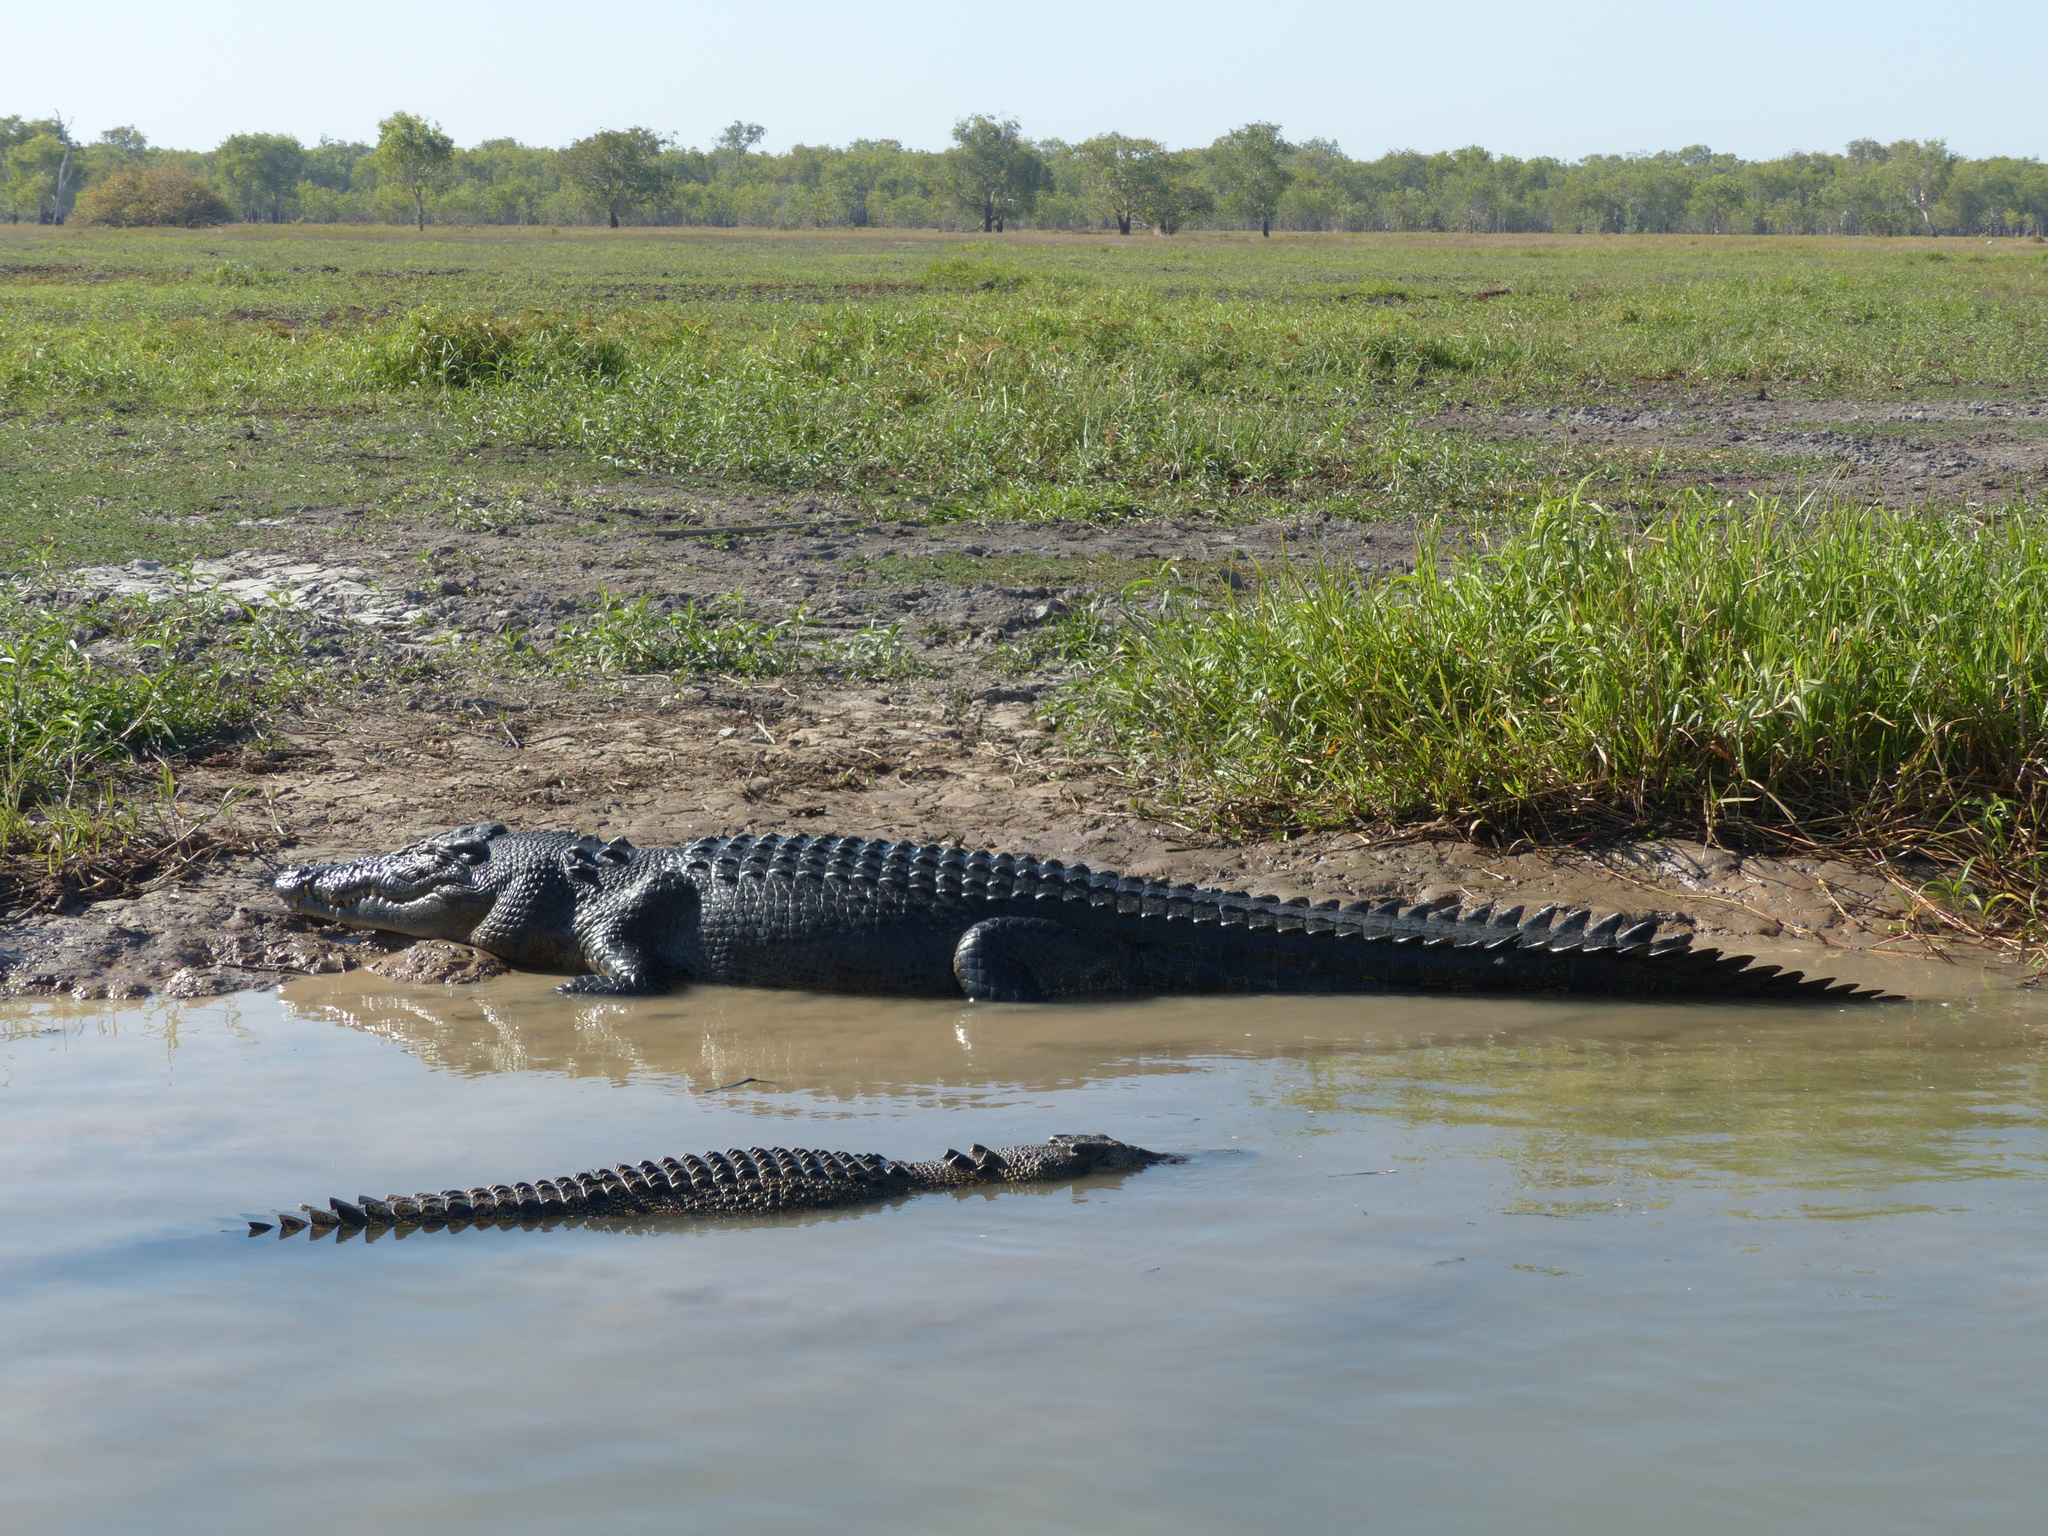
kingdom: Animalia
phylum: Chordata
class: Crocodylia
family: Crocodylidae
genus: Crocodylus
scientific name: Crocodylus porosus
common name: Saltwater crocodile
